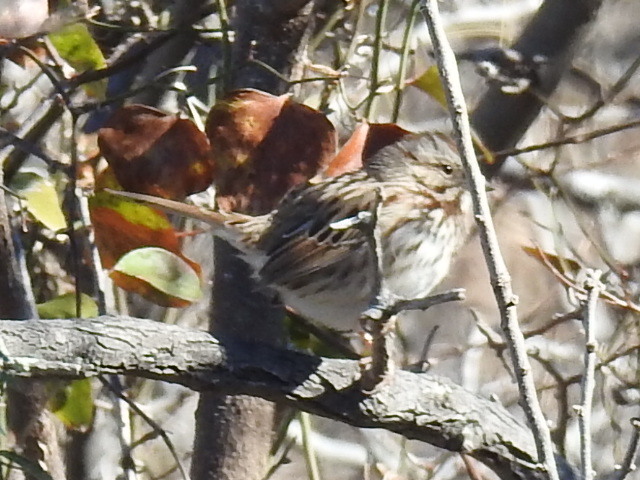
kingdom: Animalia
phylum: Chordata
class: Aves
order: Passeriformes
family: Passerellidae
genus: Melospiza
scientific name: Melospiza melodia
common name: Song sparrow
